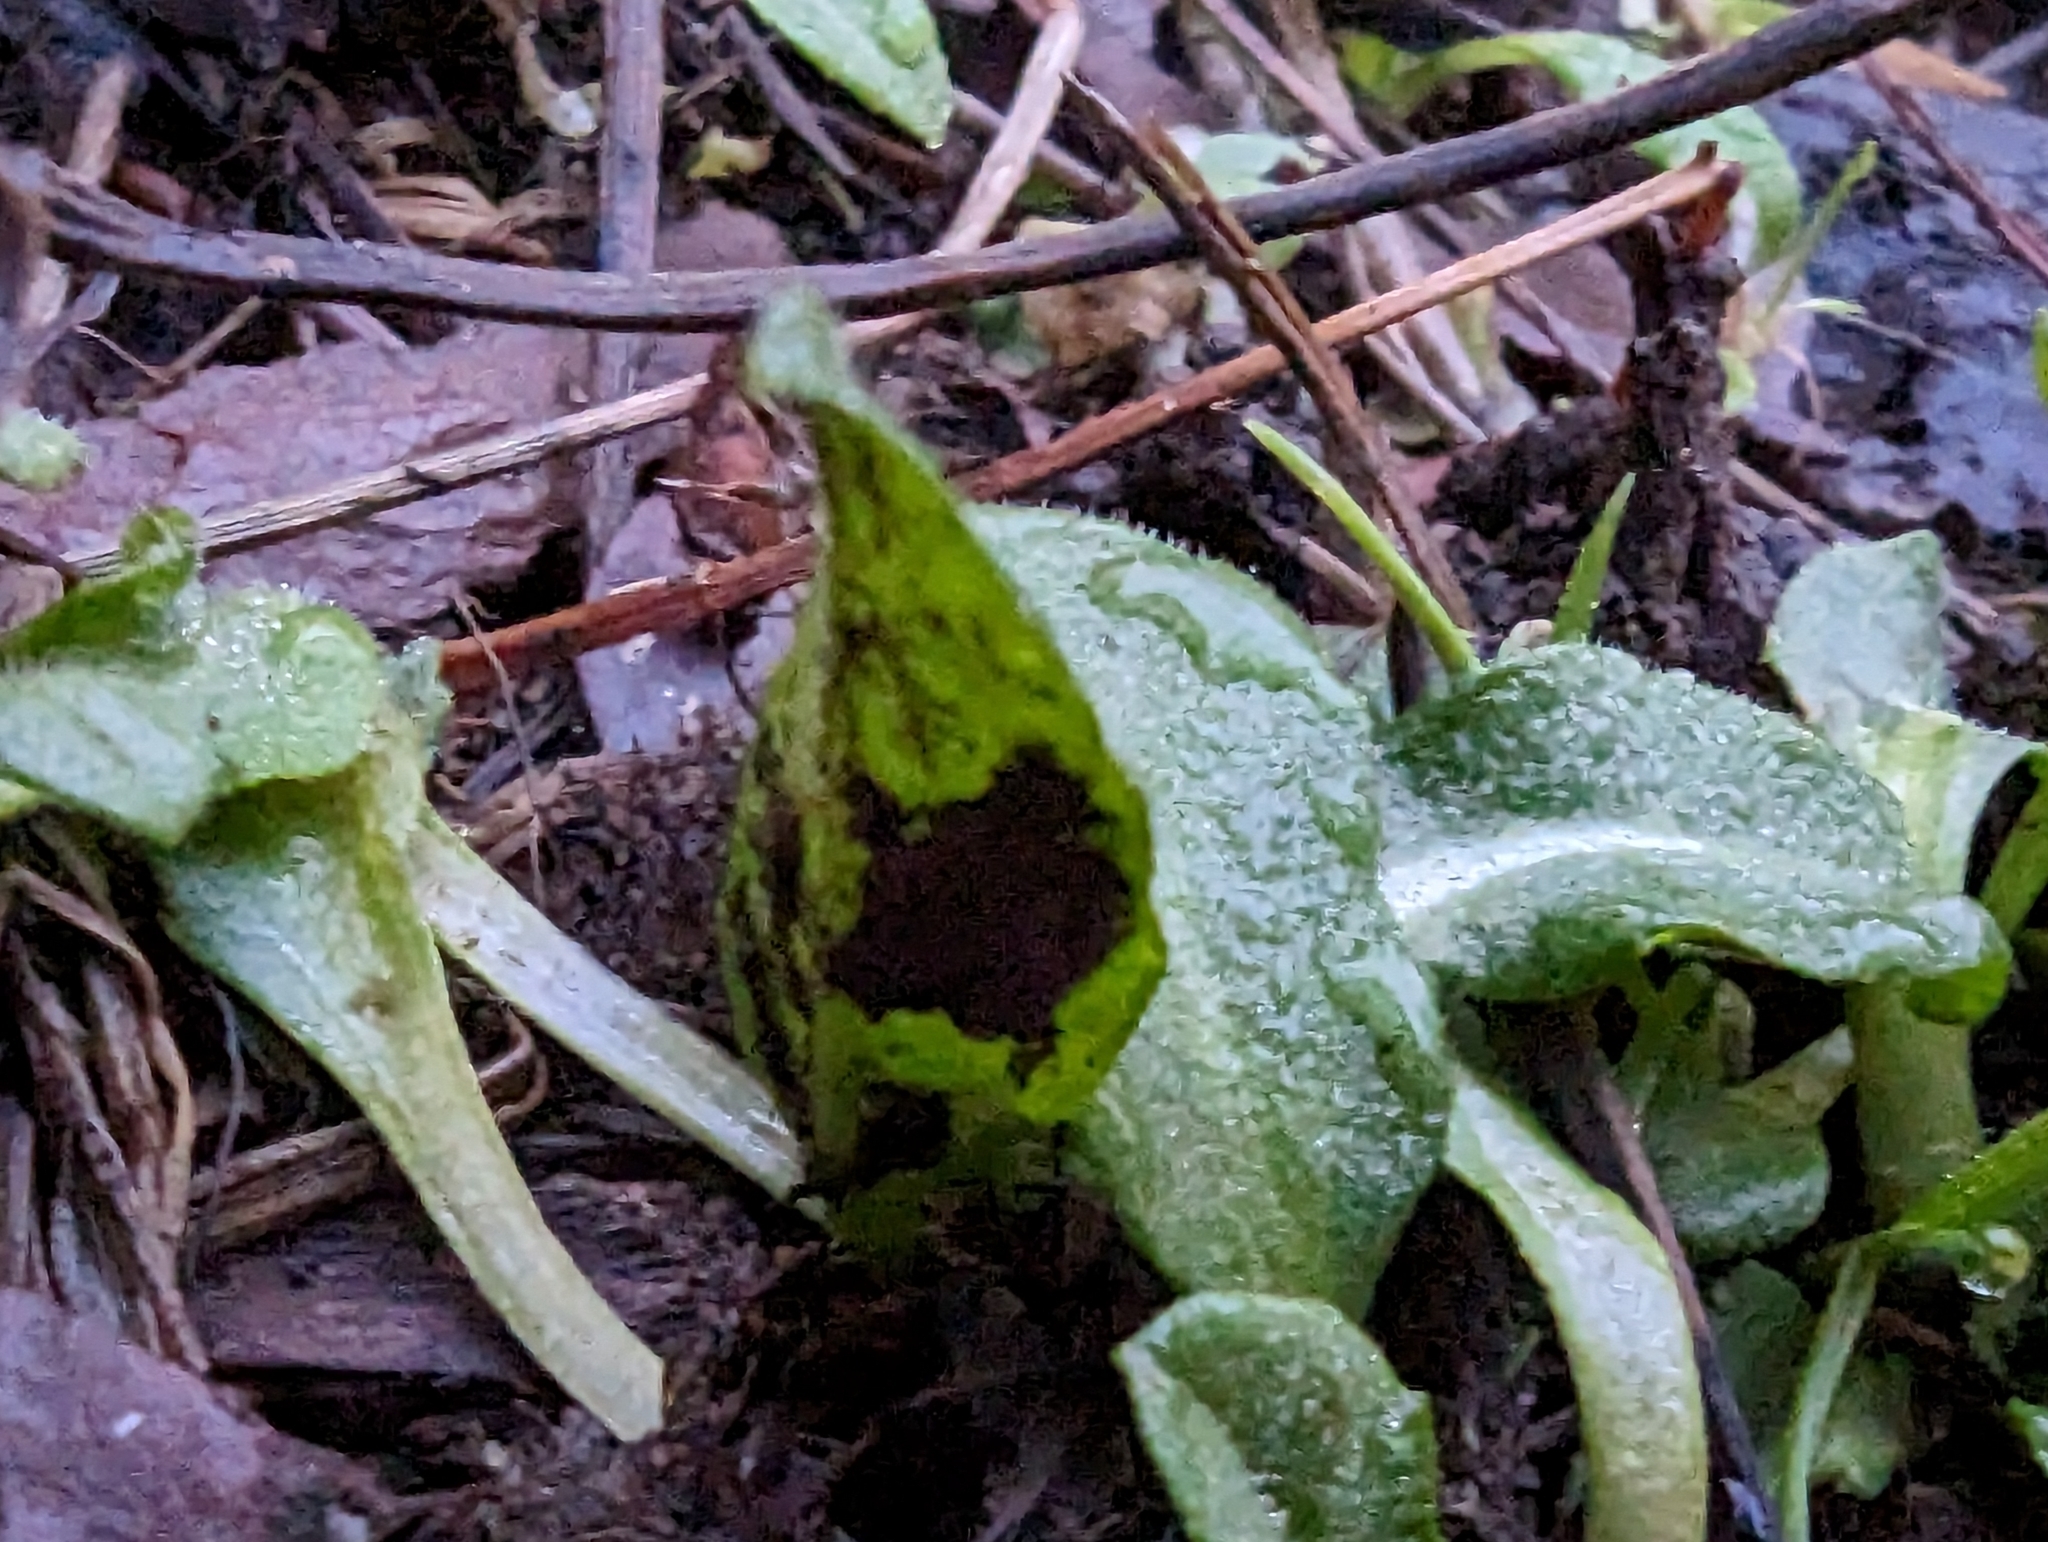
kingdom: Plantae
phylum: Tracheophyta
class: Magnoliopsida
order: Asterales
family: Asteraceae
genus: Bellis
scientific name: Bellis perennis
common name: Lawndaisy
